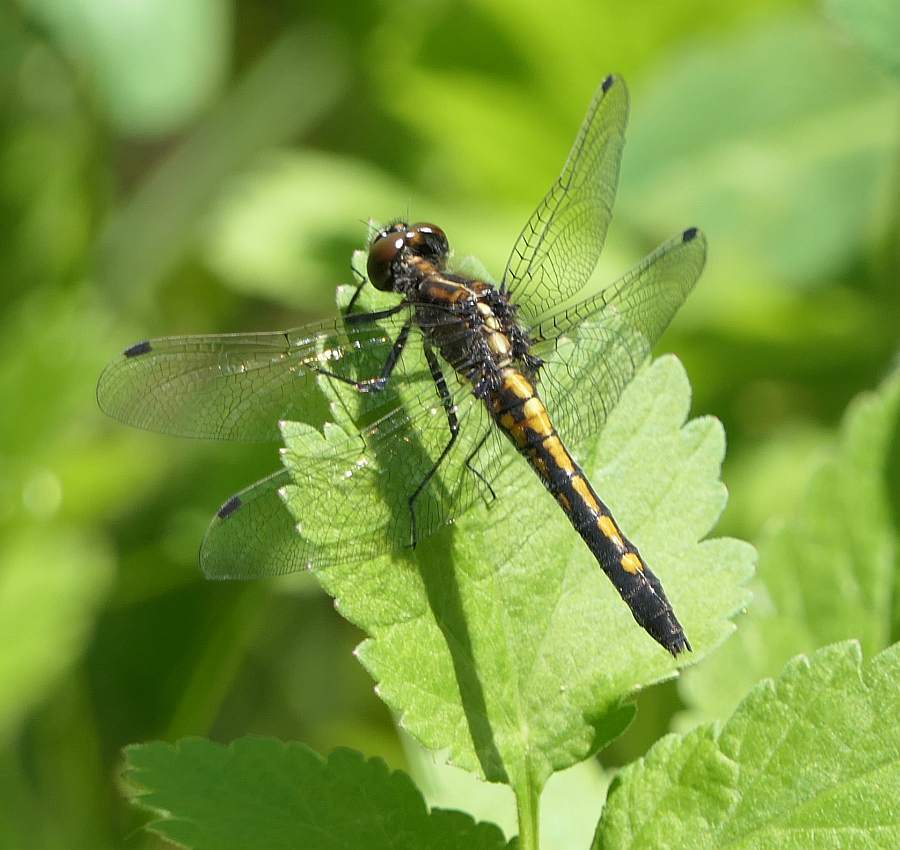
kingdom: Animalia
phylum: Arthropoda
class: Insecta
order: Odonata
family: Libellulidae
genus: Leucorrhinia
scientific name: Leucorrhinia intacta
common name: Dot-tailed whiteface
